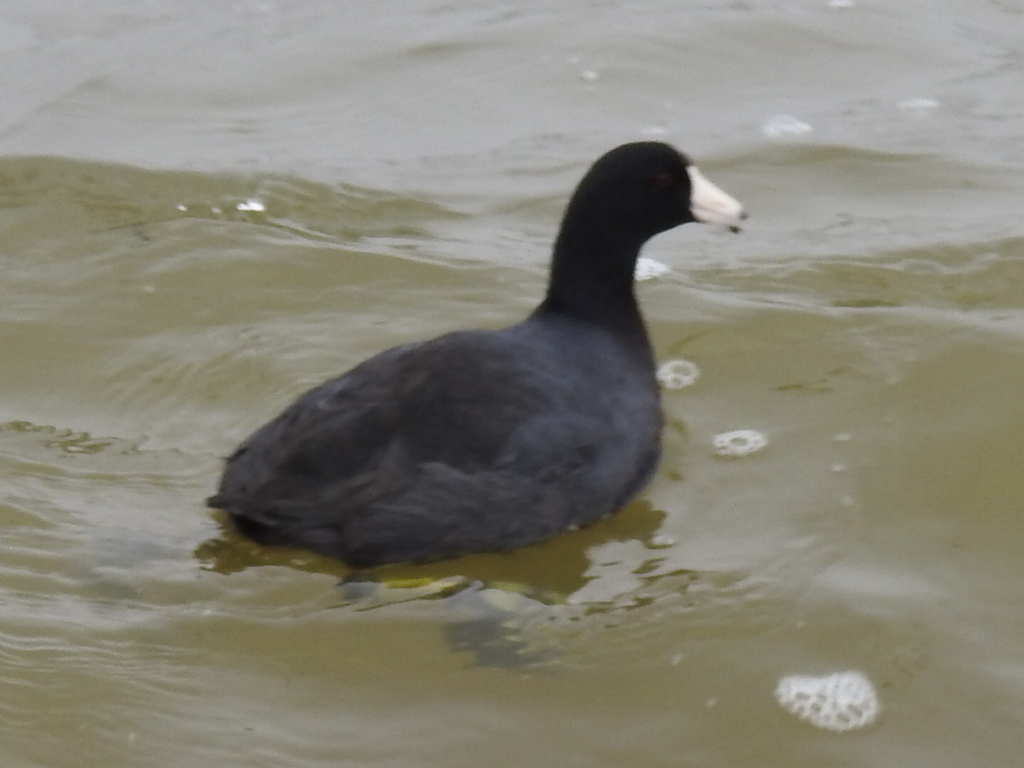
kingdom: Animalia
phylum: Chordata
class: Aves
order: Gruiformes
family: Rallidae
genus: Fulica
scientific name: Fulica americana
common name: American coot
